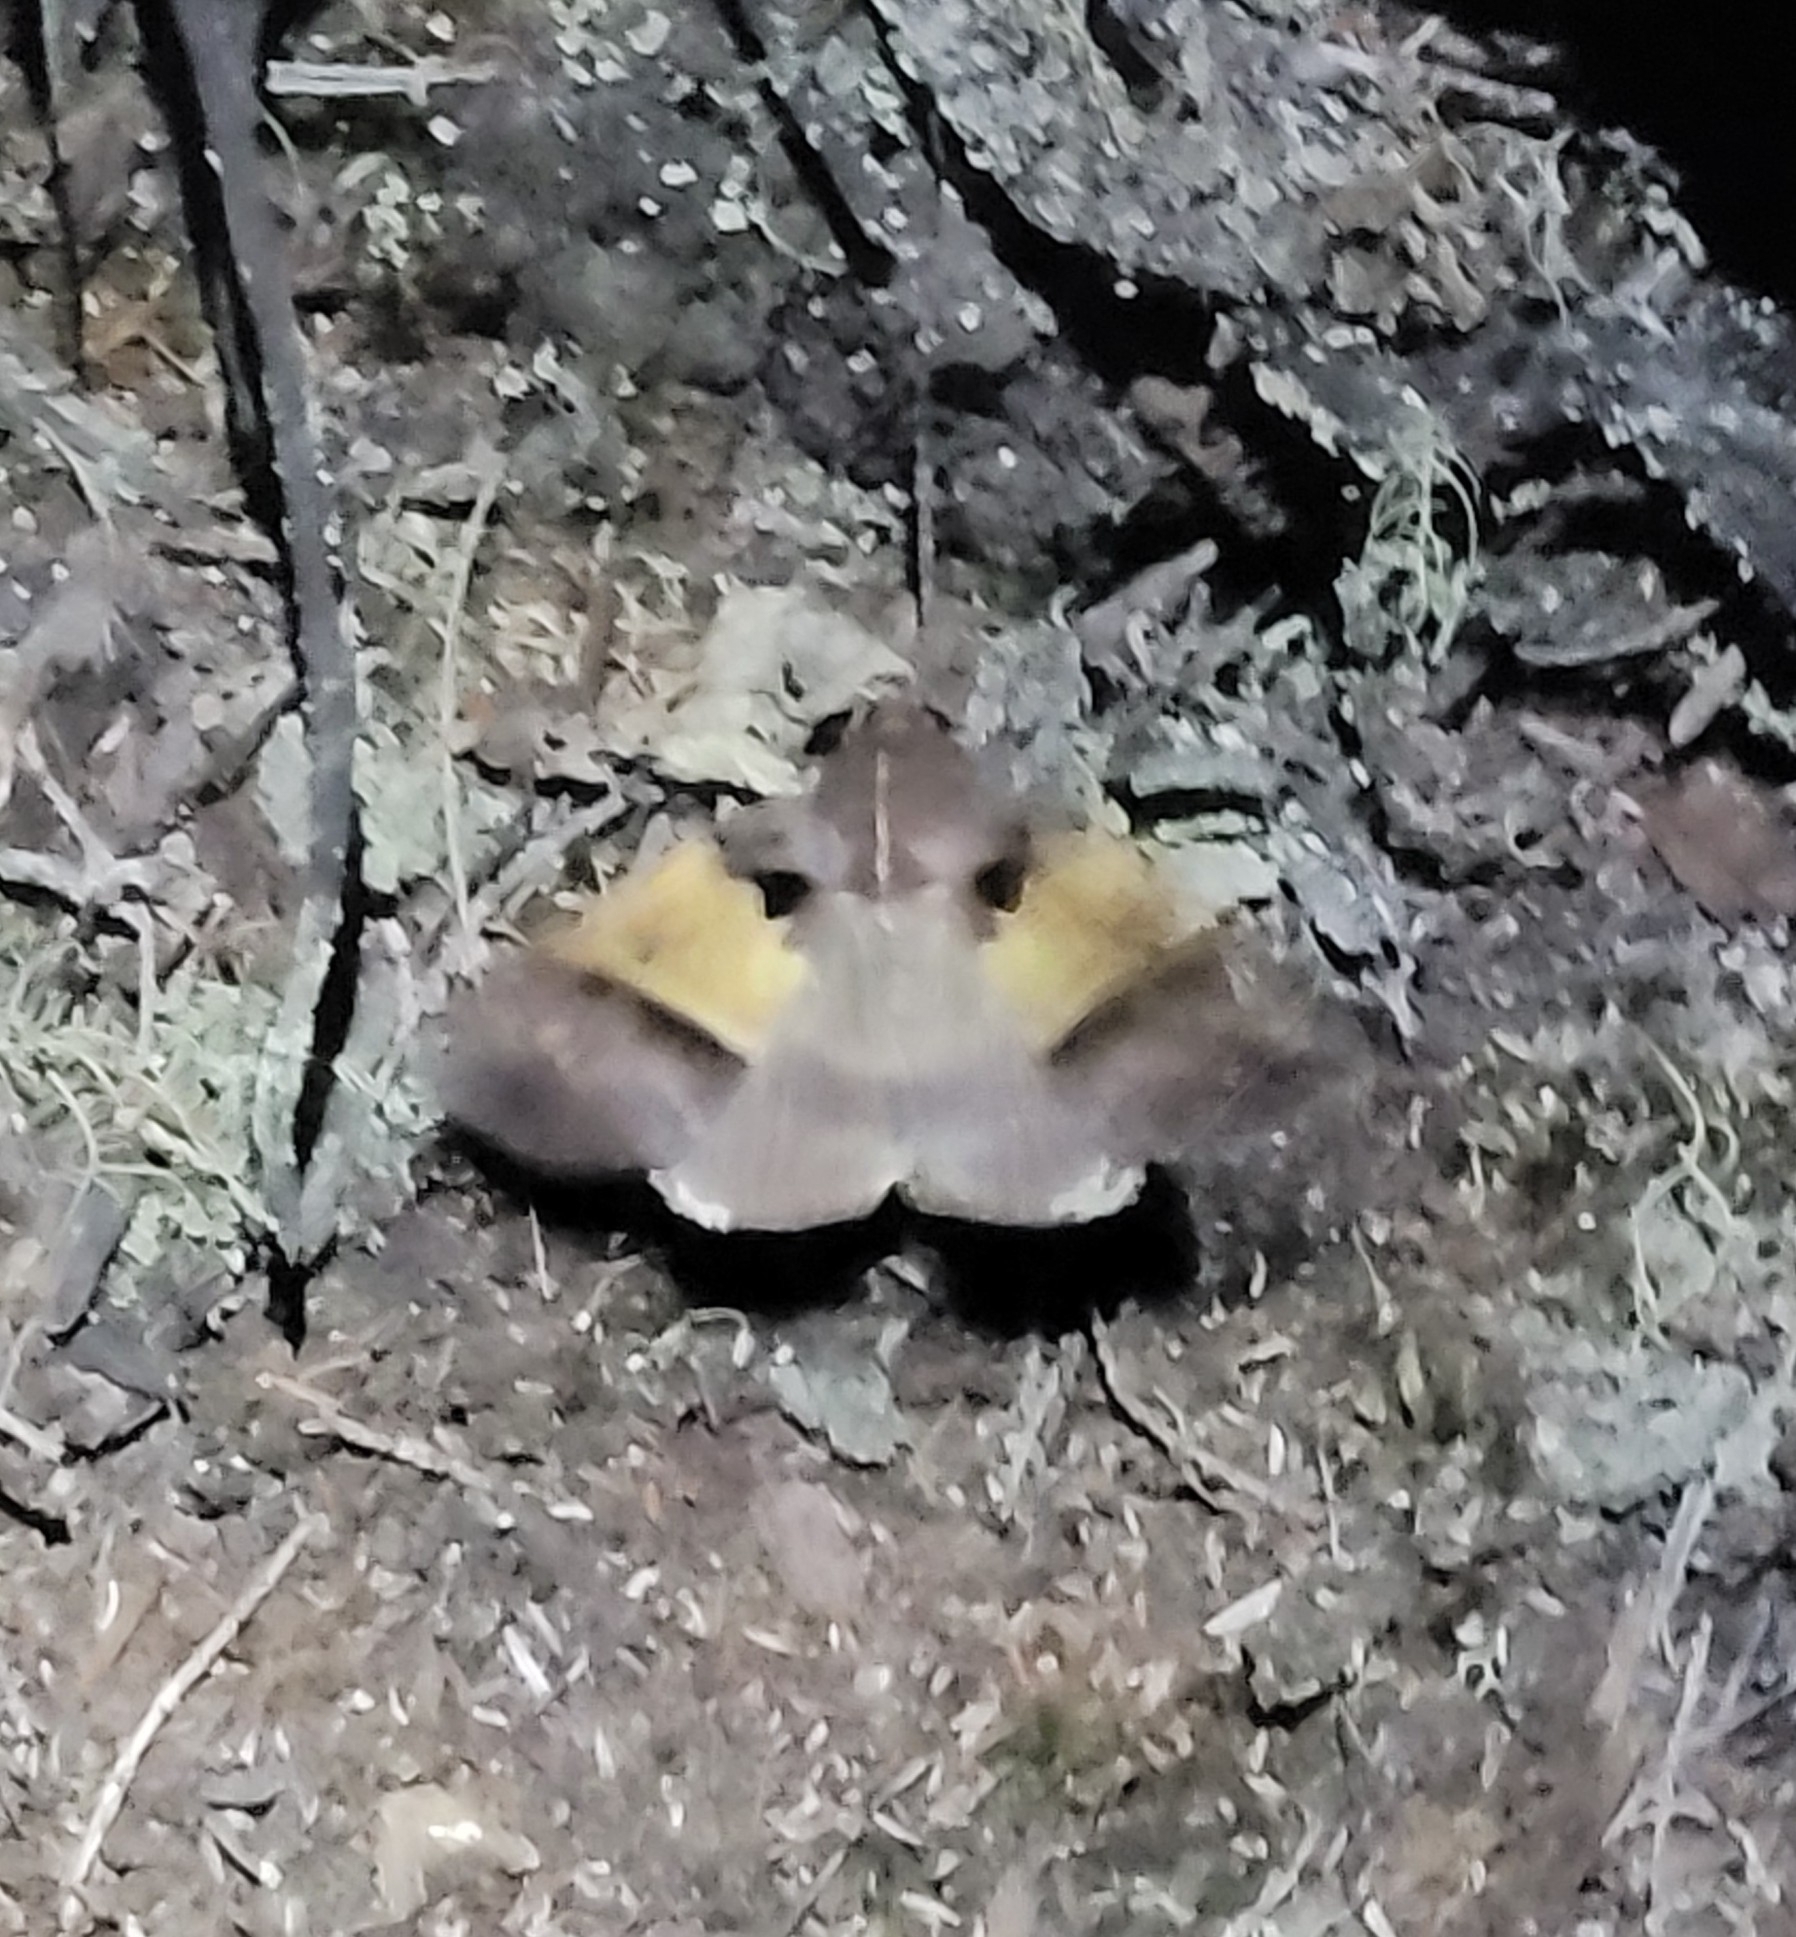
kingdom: Animalia
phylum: Arthropoda
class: Insecta
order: Lepidoptera
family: Erebidae
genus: Serrodes
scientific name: Serrodes trispila
